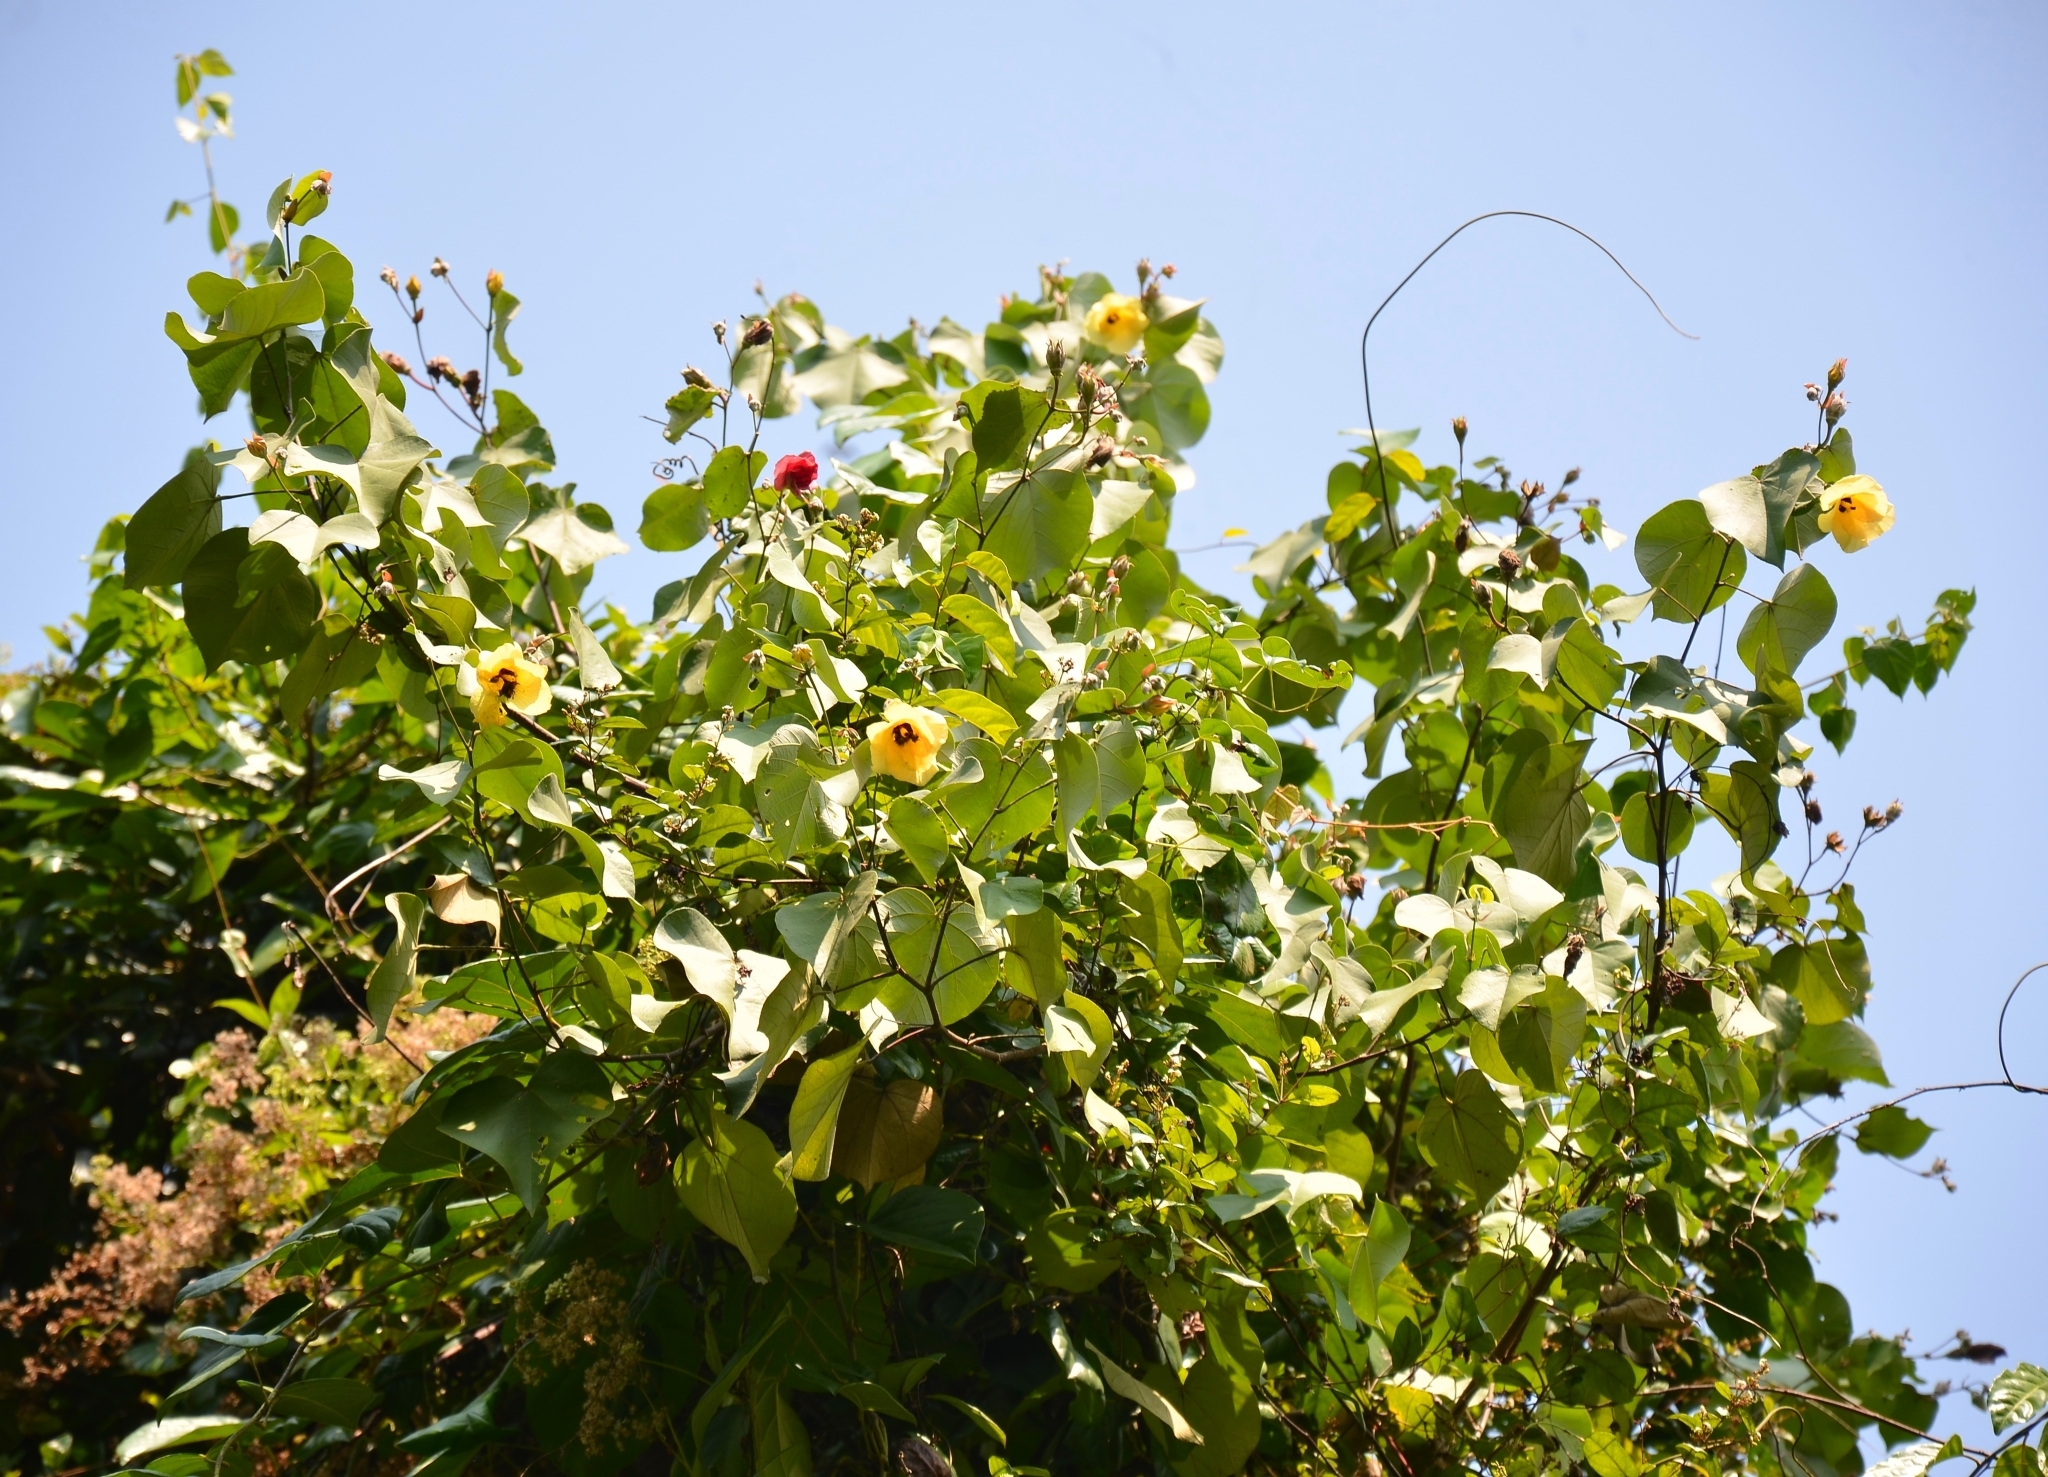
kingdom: Plantae
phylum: Tracheophyta
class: Magnoliopsida
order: Malvales
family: Malvaceae
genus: Talipariti
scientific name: Talipariti tiliaceum
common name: Sea hibiscus
